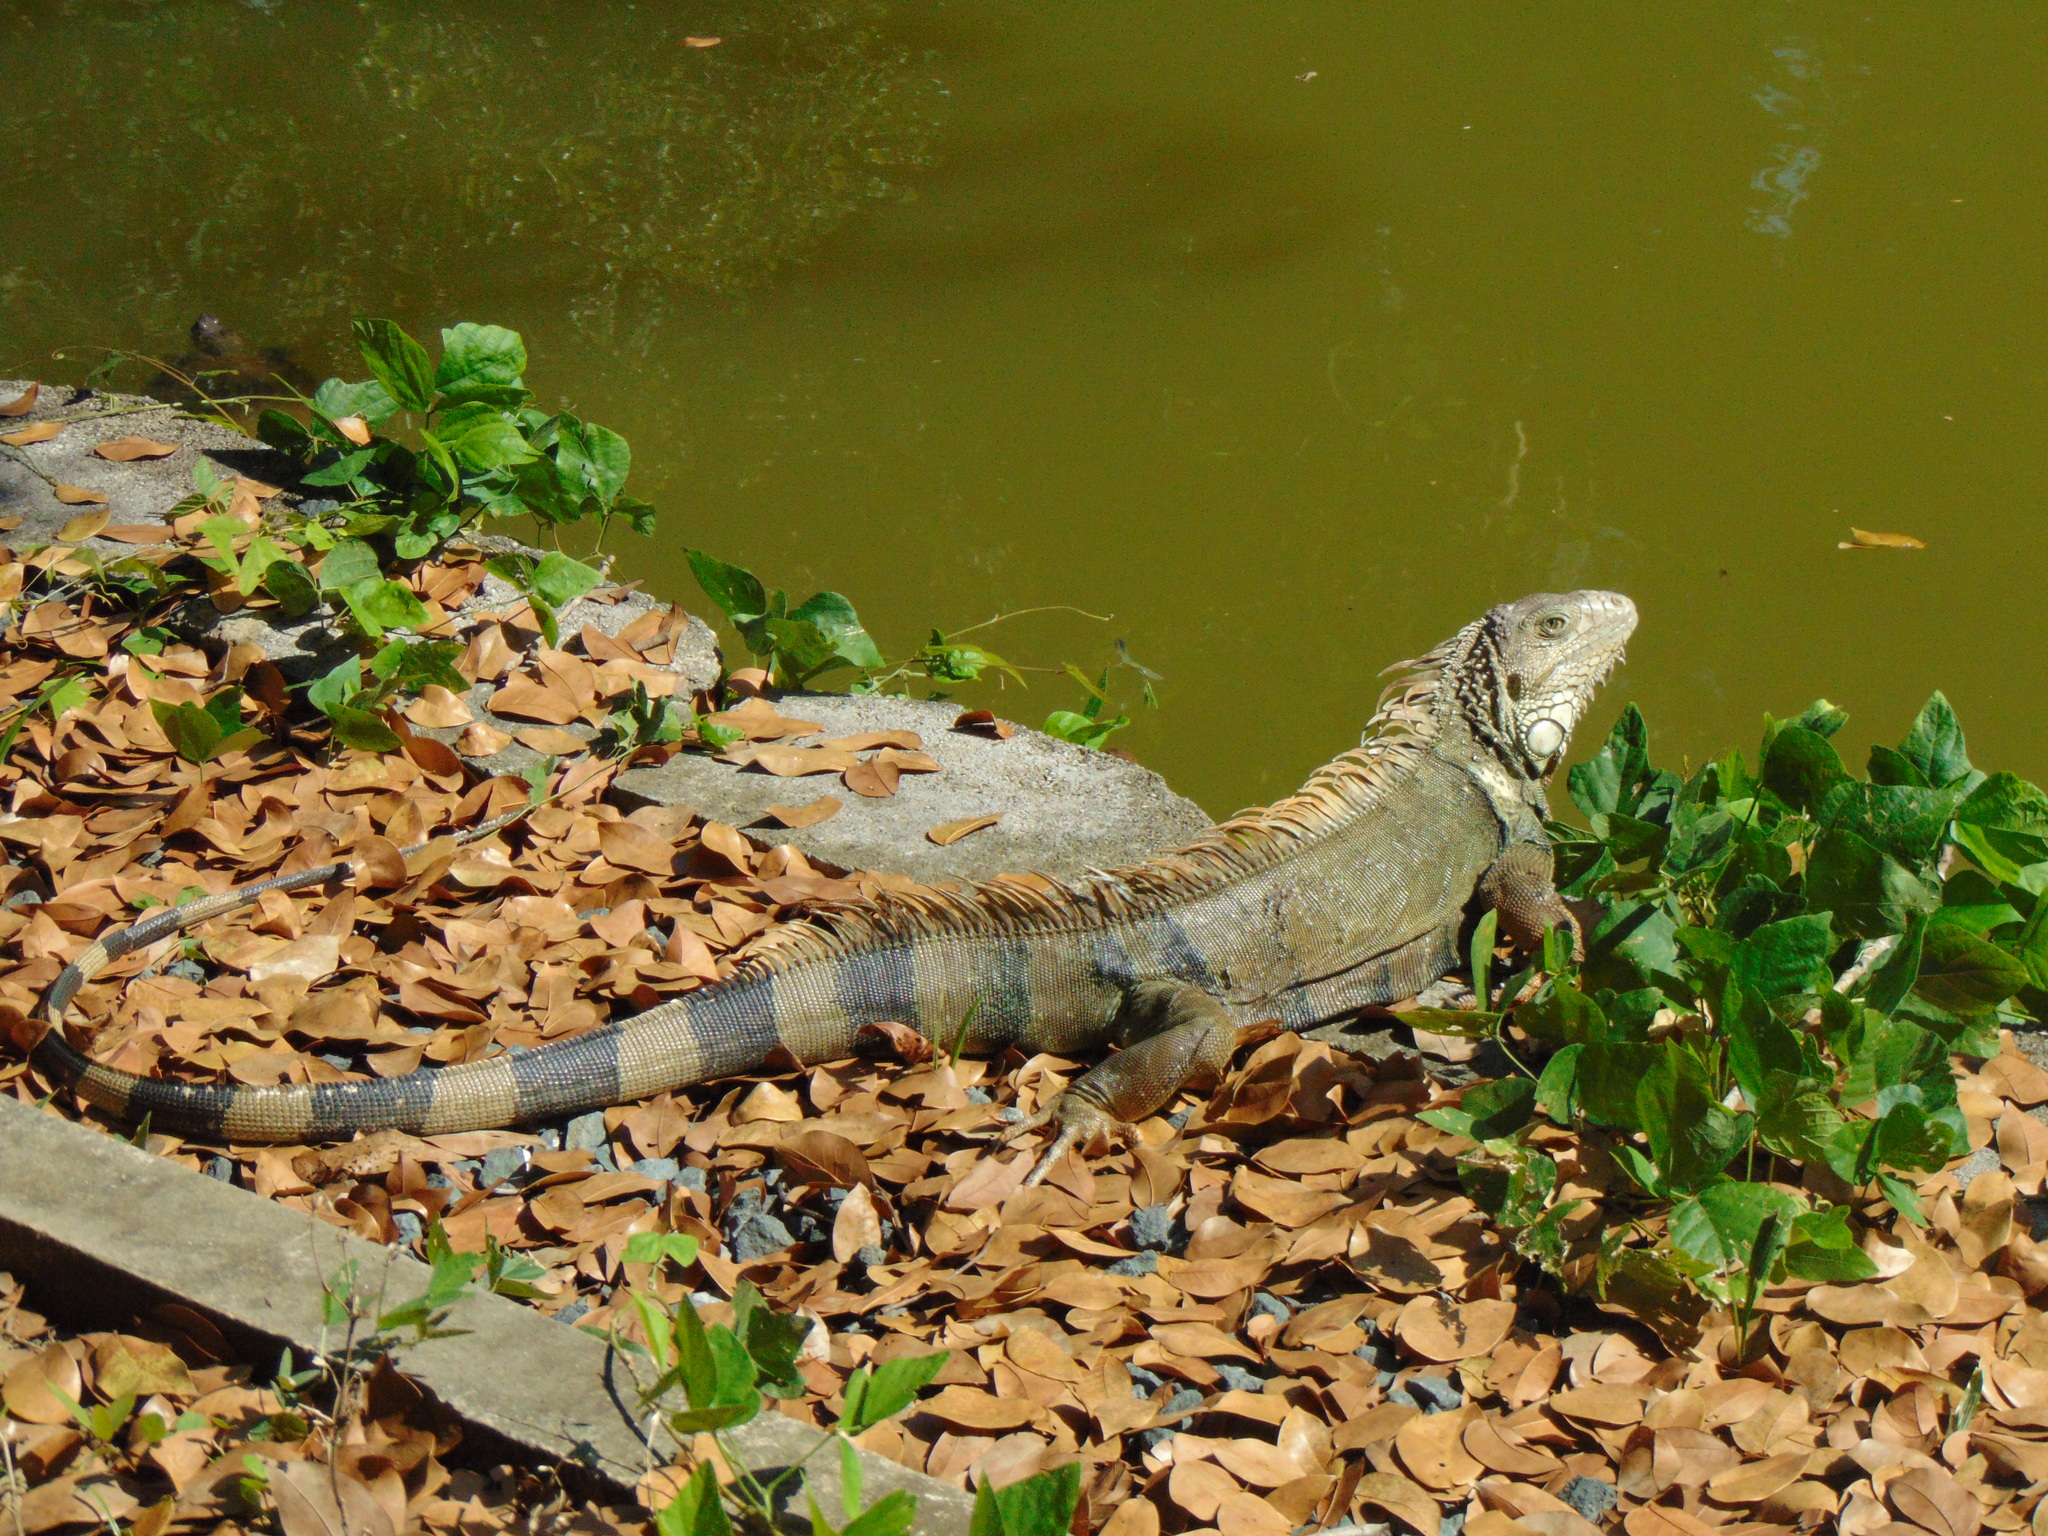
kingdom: Animalia
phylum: Chordata
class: Squamata
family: Iguanidae
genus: Iguana
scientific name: Iguana iguana
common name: Green iguana
